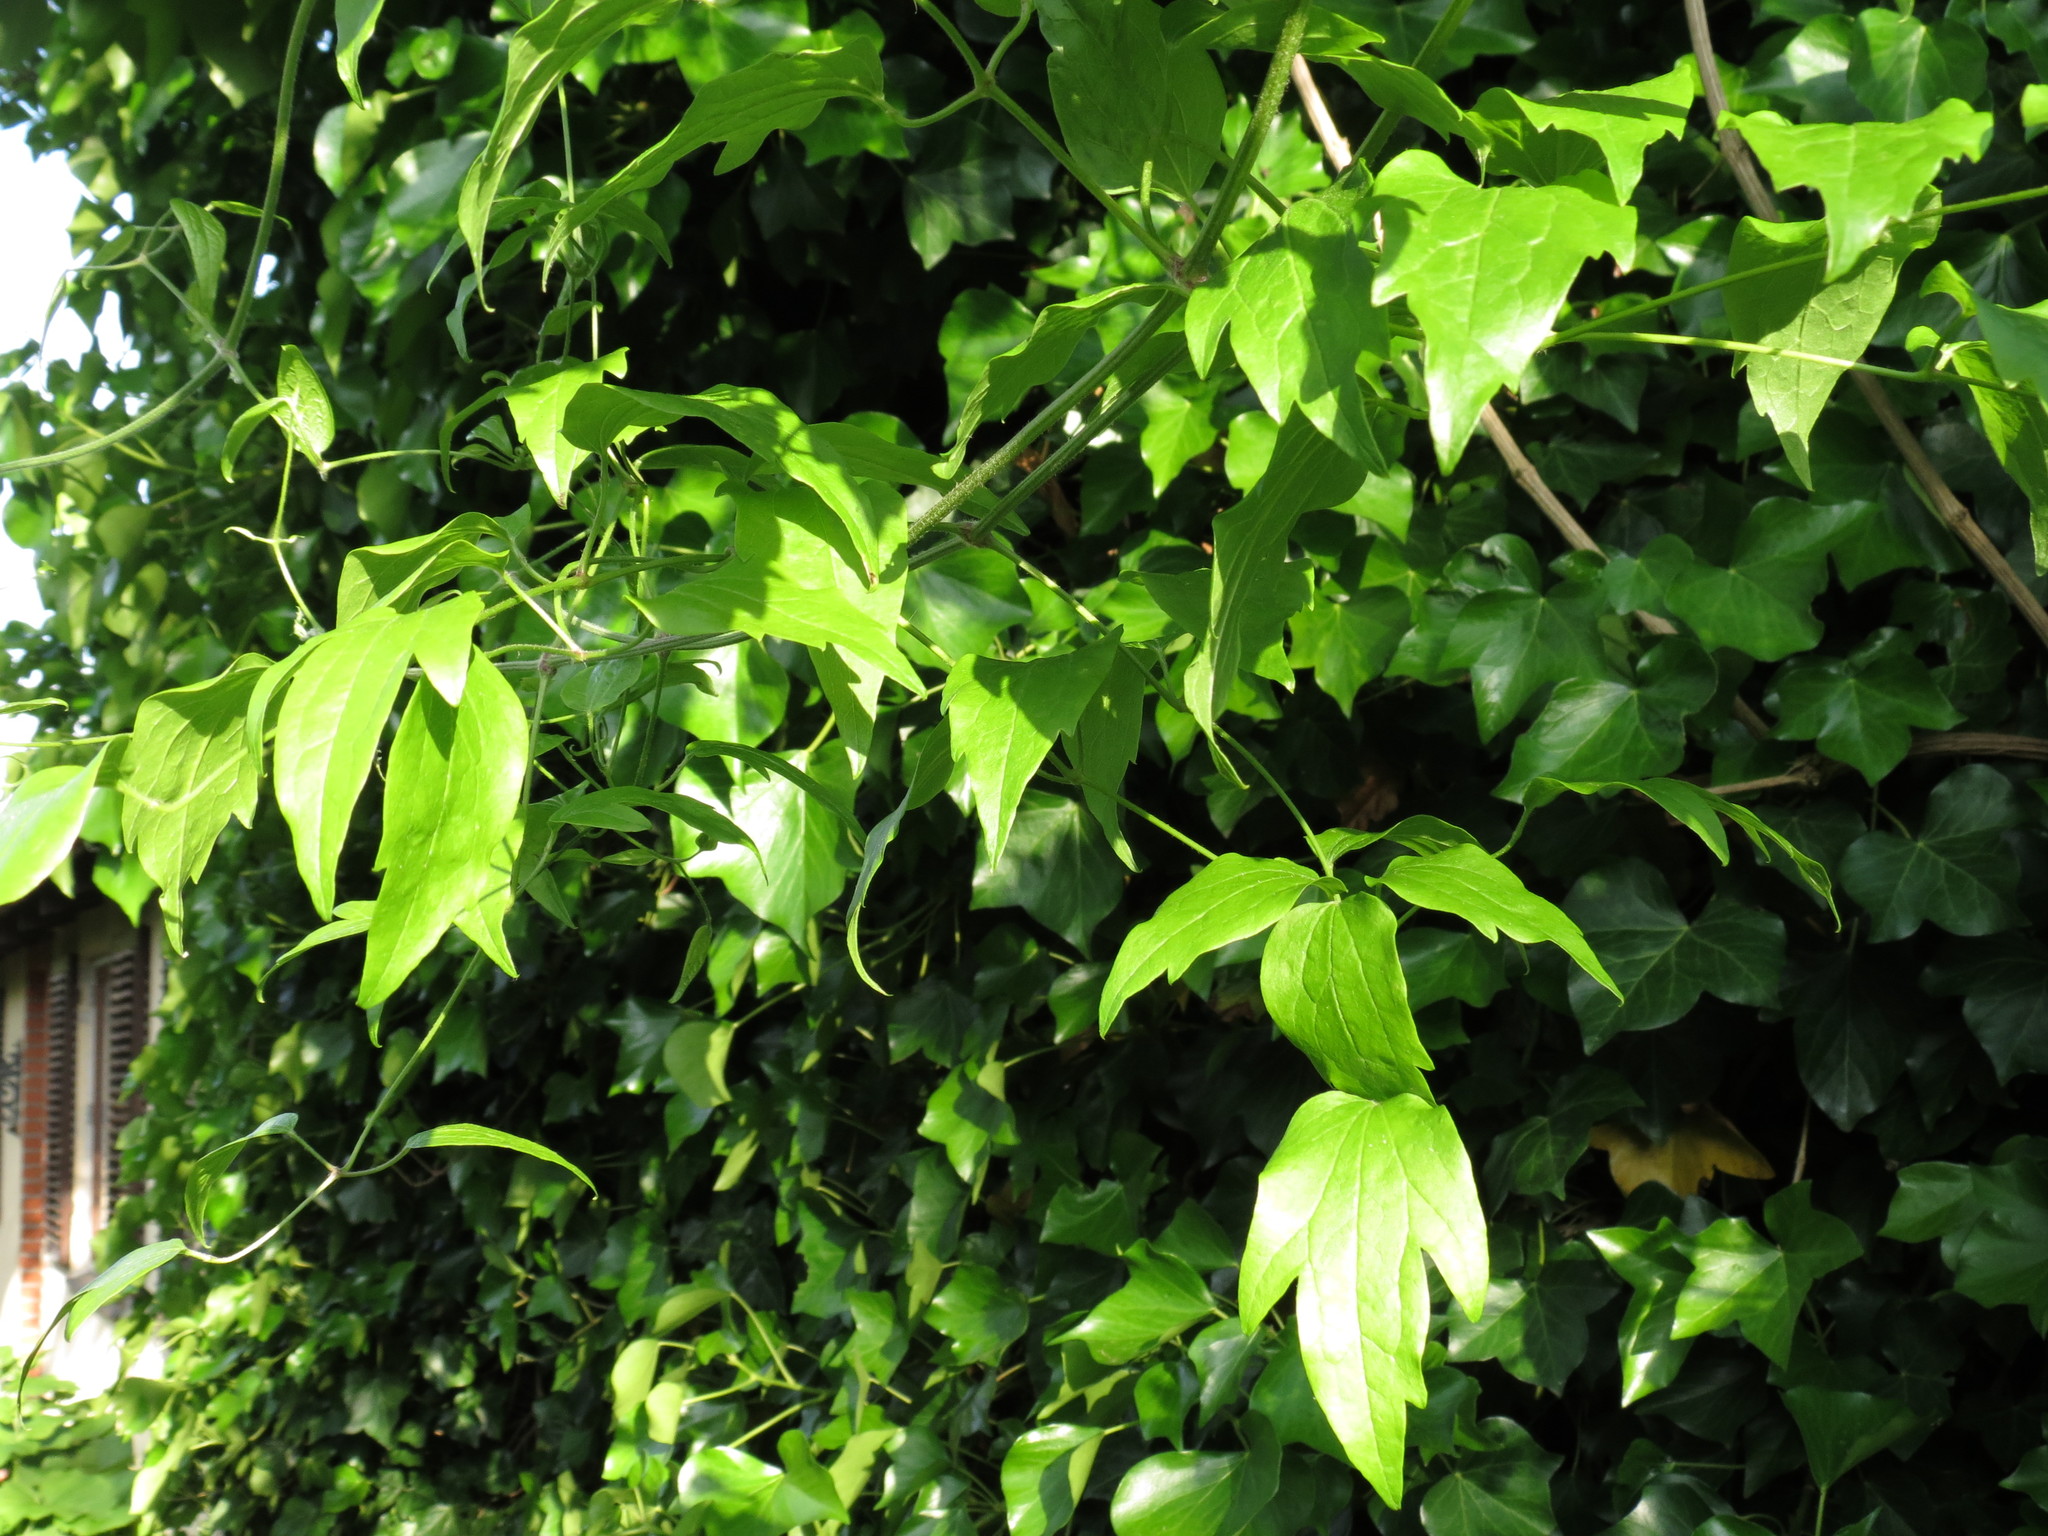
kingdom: Plantae
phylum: Tracheophyta
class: Magnoliopsida
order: Ranunculales
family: Ranunculaceae
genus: Clematis
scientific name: Clematis vitalba
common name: Evergreen clematis
